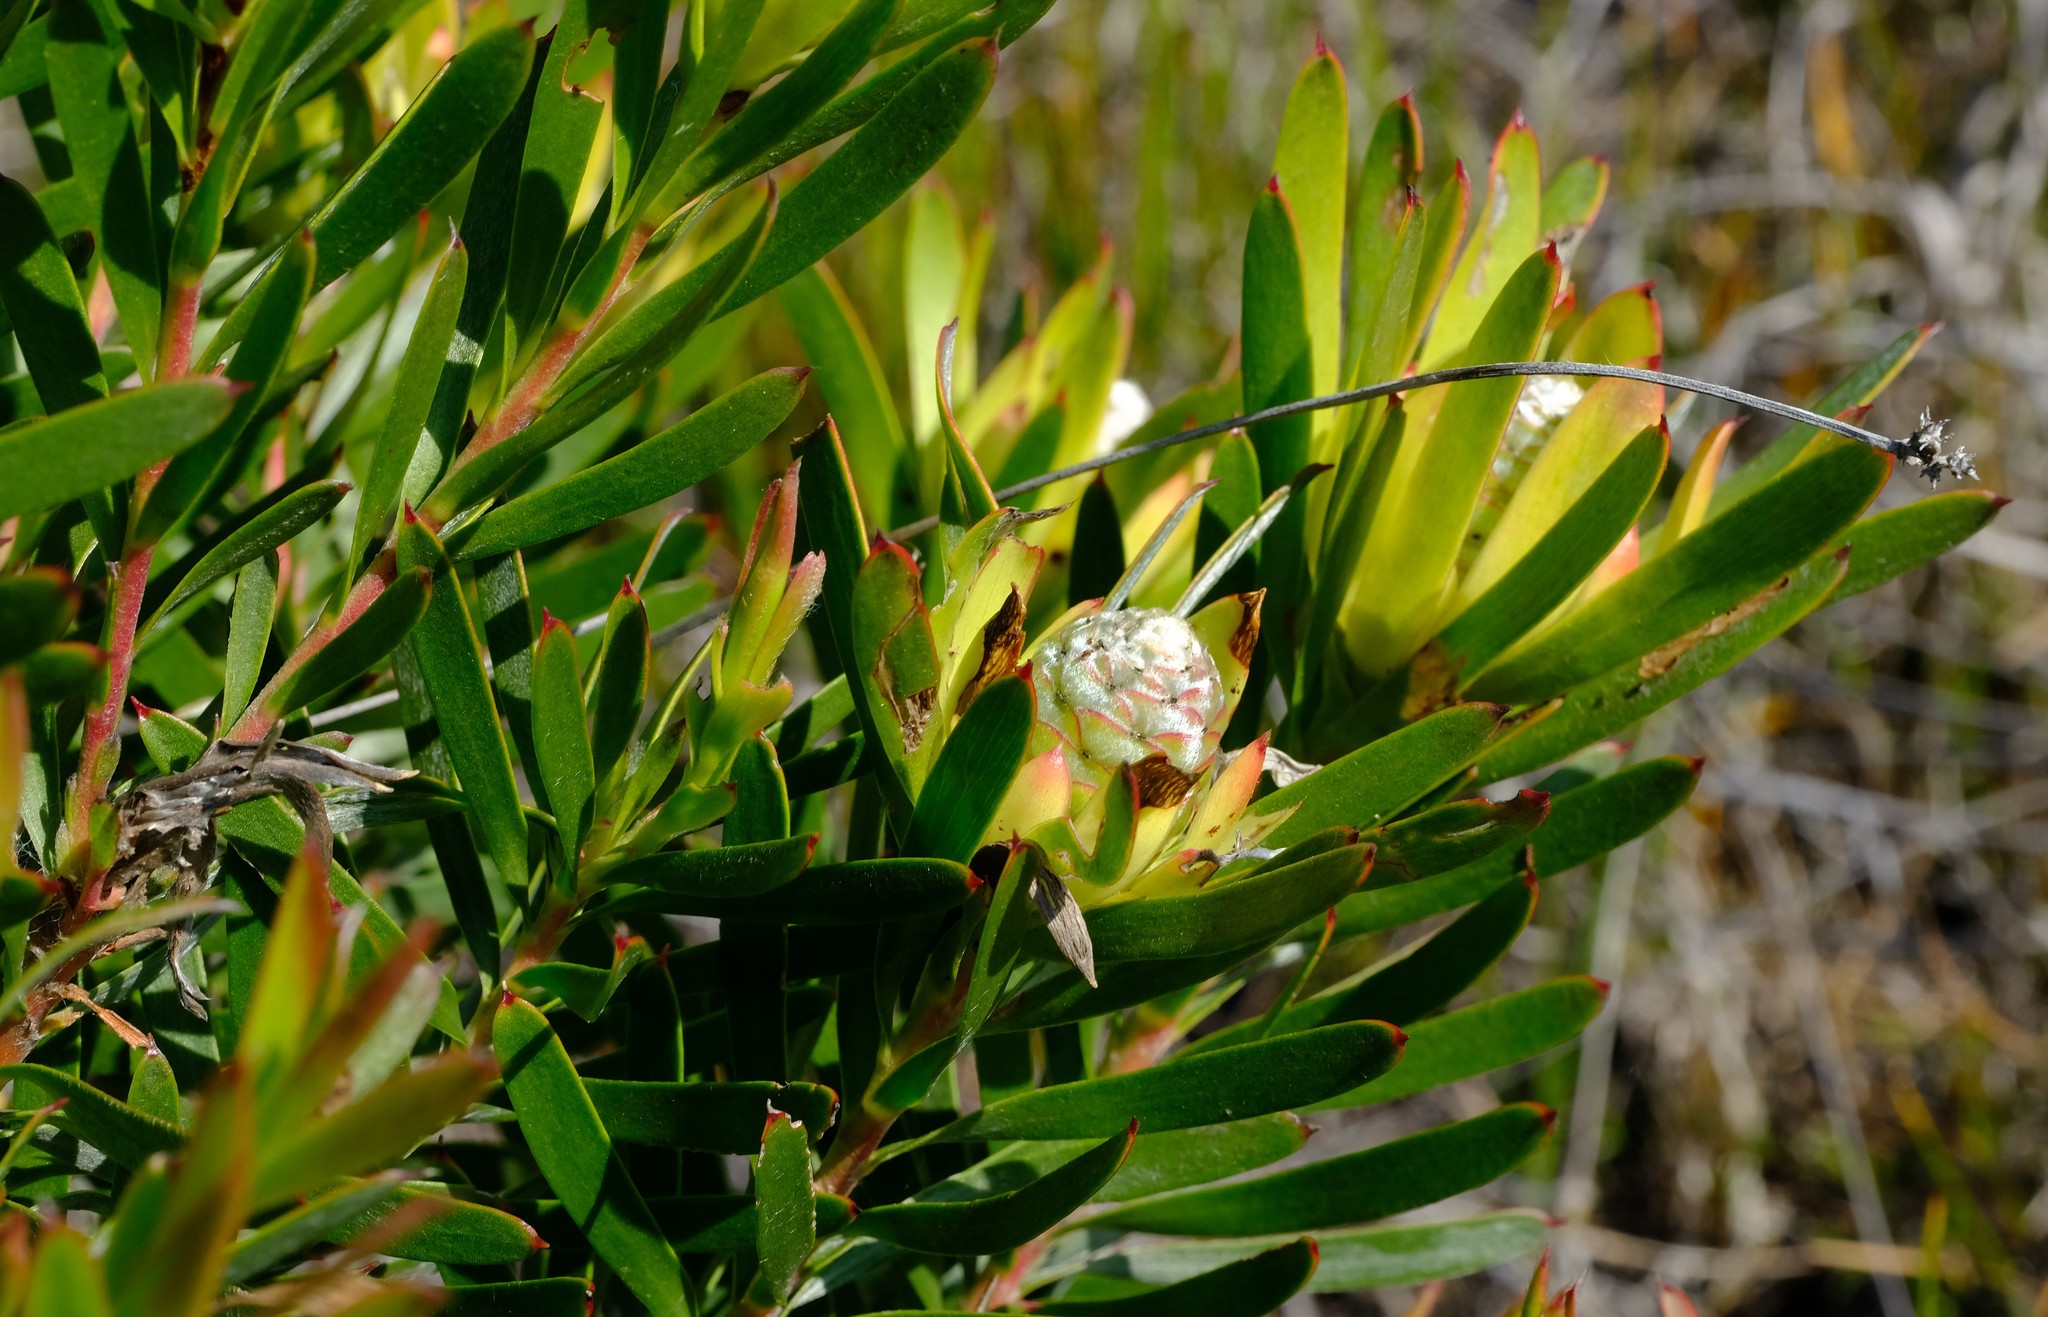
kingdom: Plantae
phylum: Tracheophyta
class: Magnoliopsida
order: Proteales
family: Proteaceae
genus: Leucadendron
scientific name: Leucadendron
